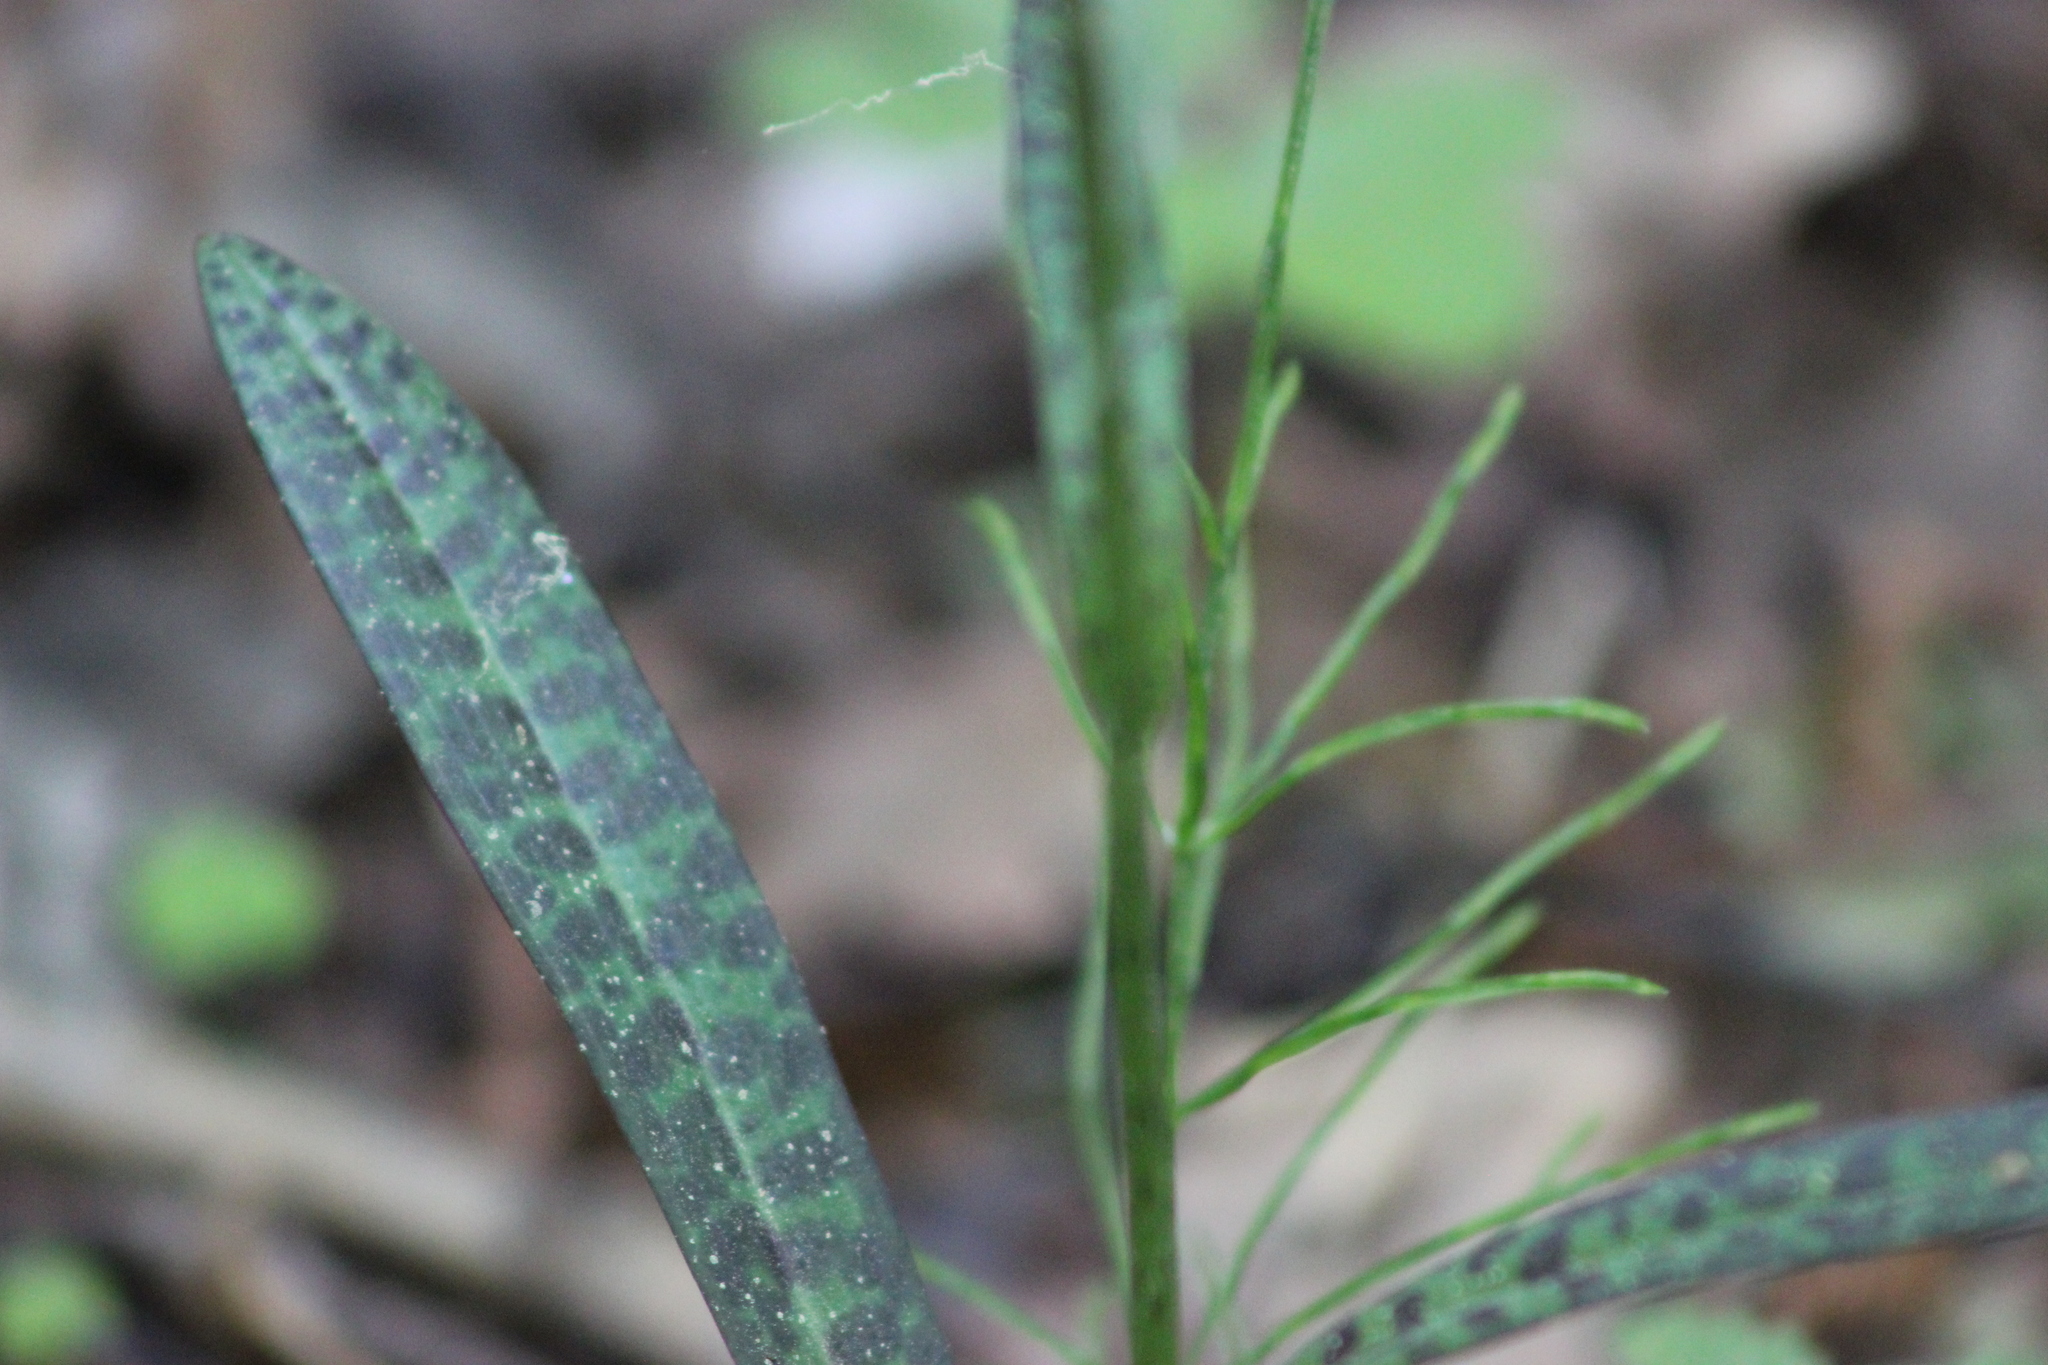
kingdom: Plantae
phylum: Tracheophyta
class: Liliopsida
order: Asparagales
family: Orchidaceae
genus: Dactylorhiza
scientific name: Dactylorhiza maculata
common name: Heath spotted-orchid
